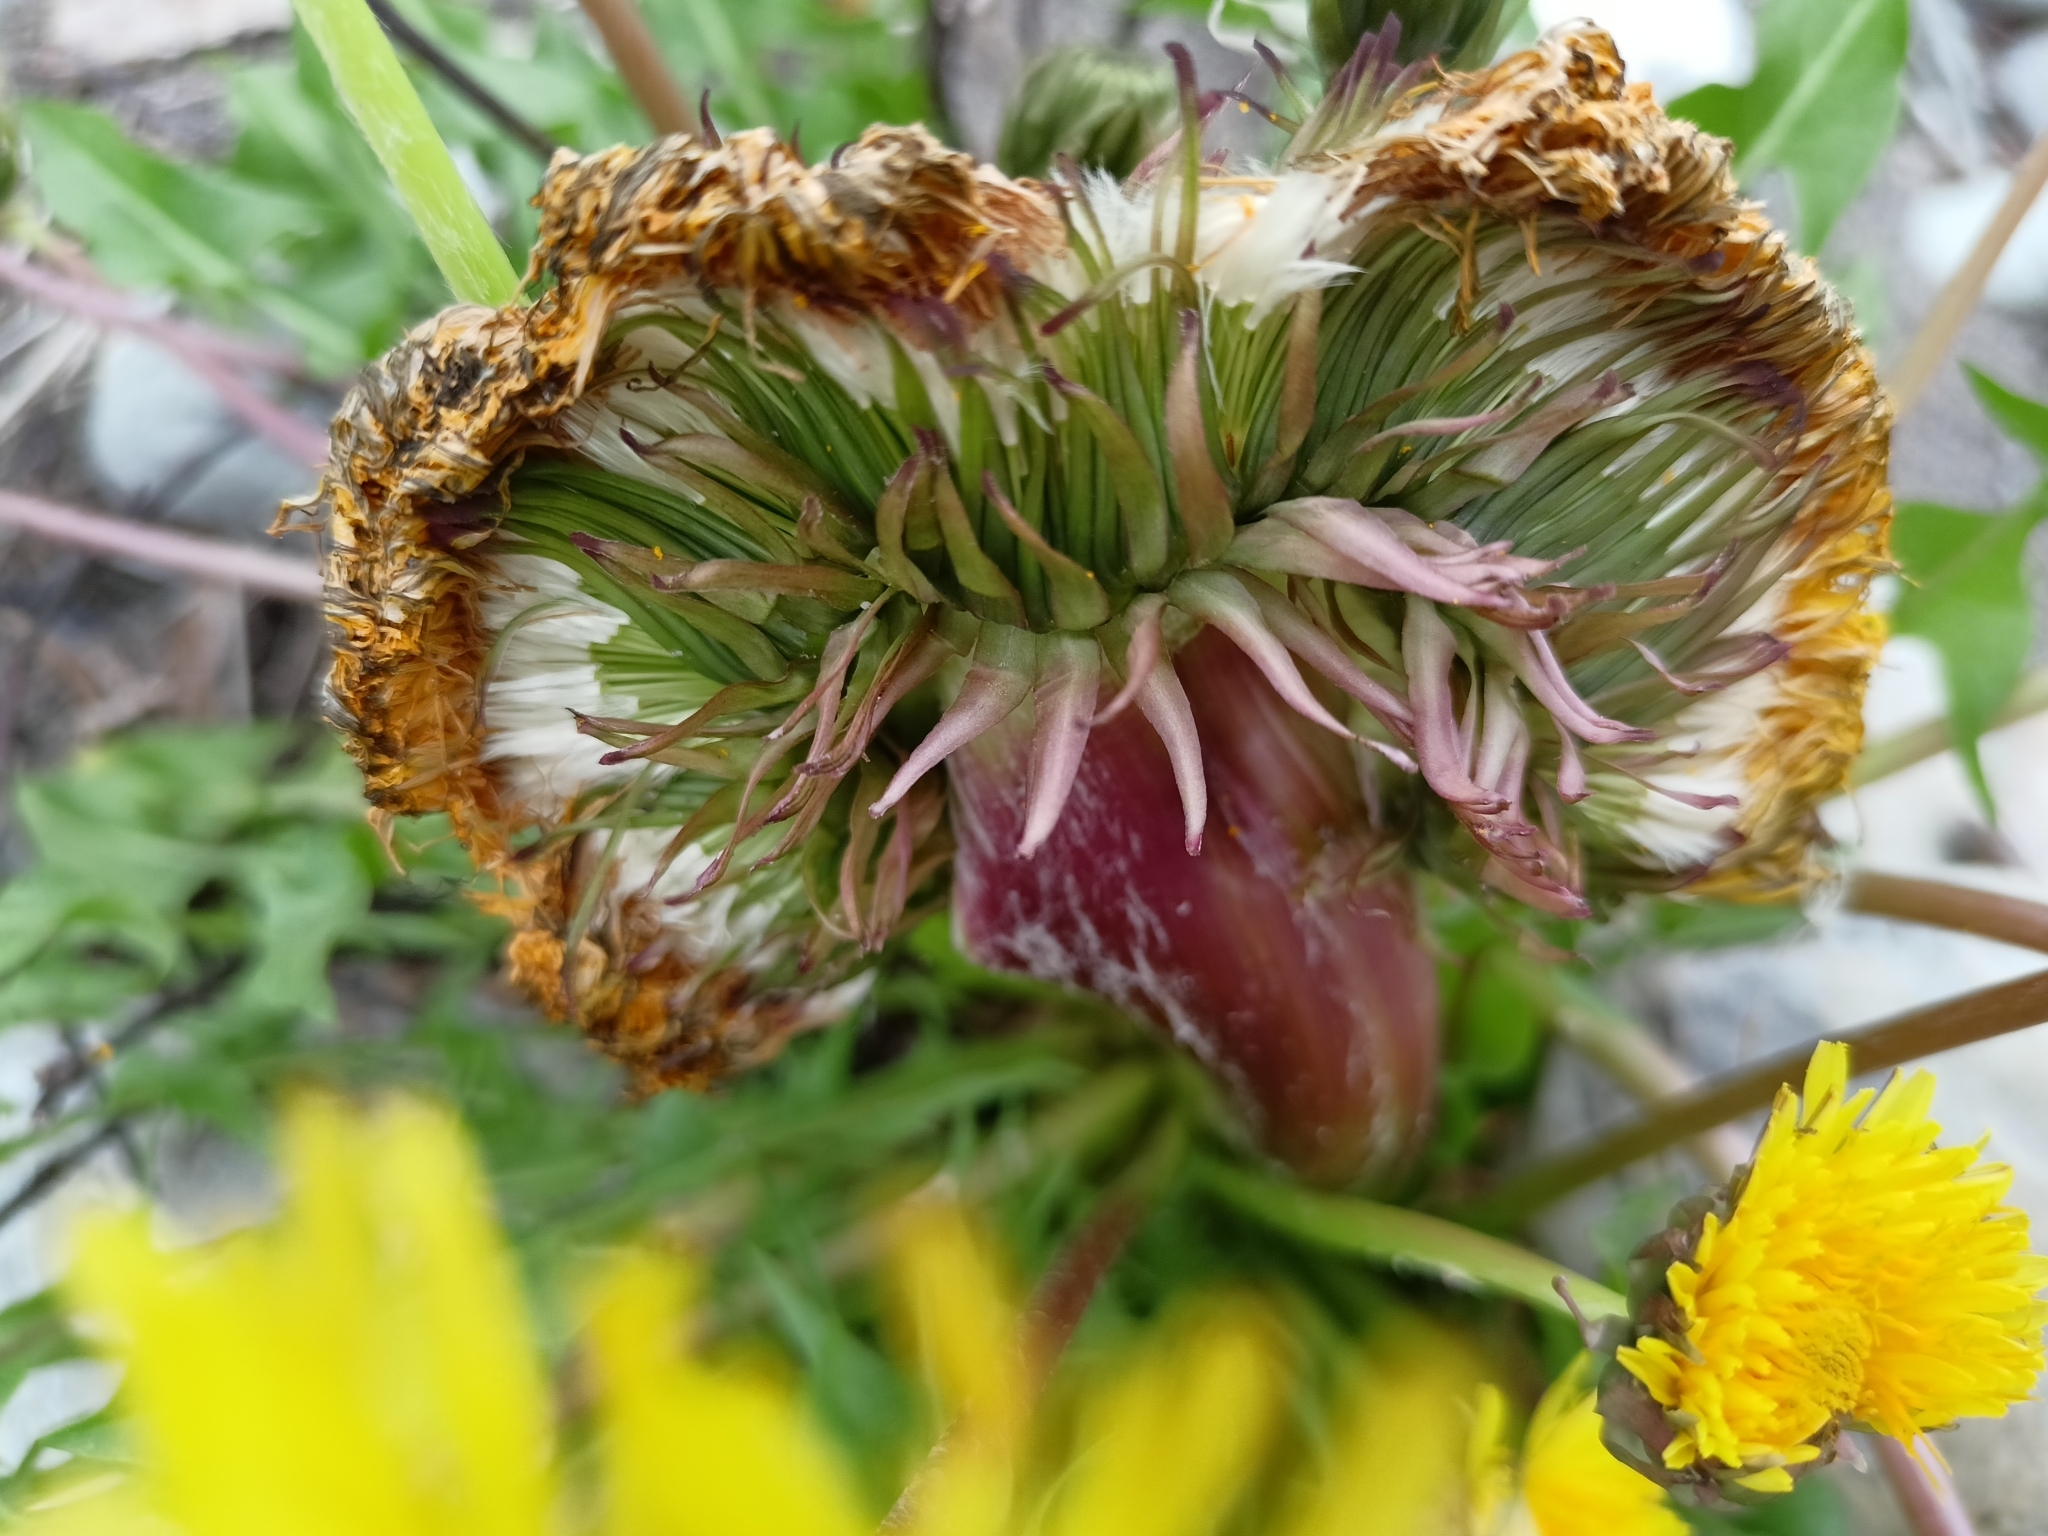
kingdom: Plantae
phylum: Tracheophyta
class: Magnoliopsida
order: Asterales
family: Asteraceae
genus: Taraxacum
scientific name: Taraxacum officinale
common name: Common dandelion
